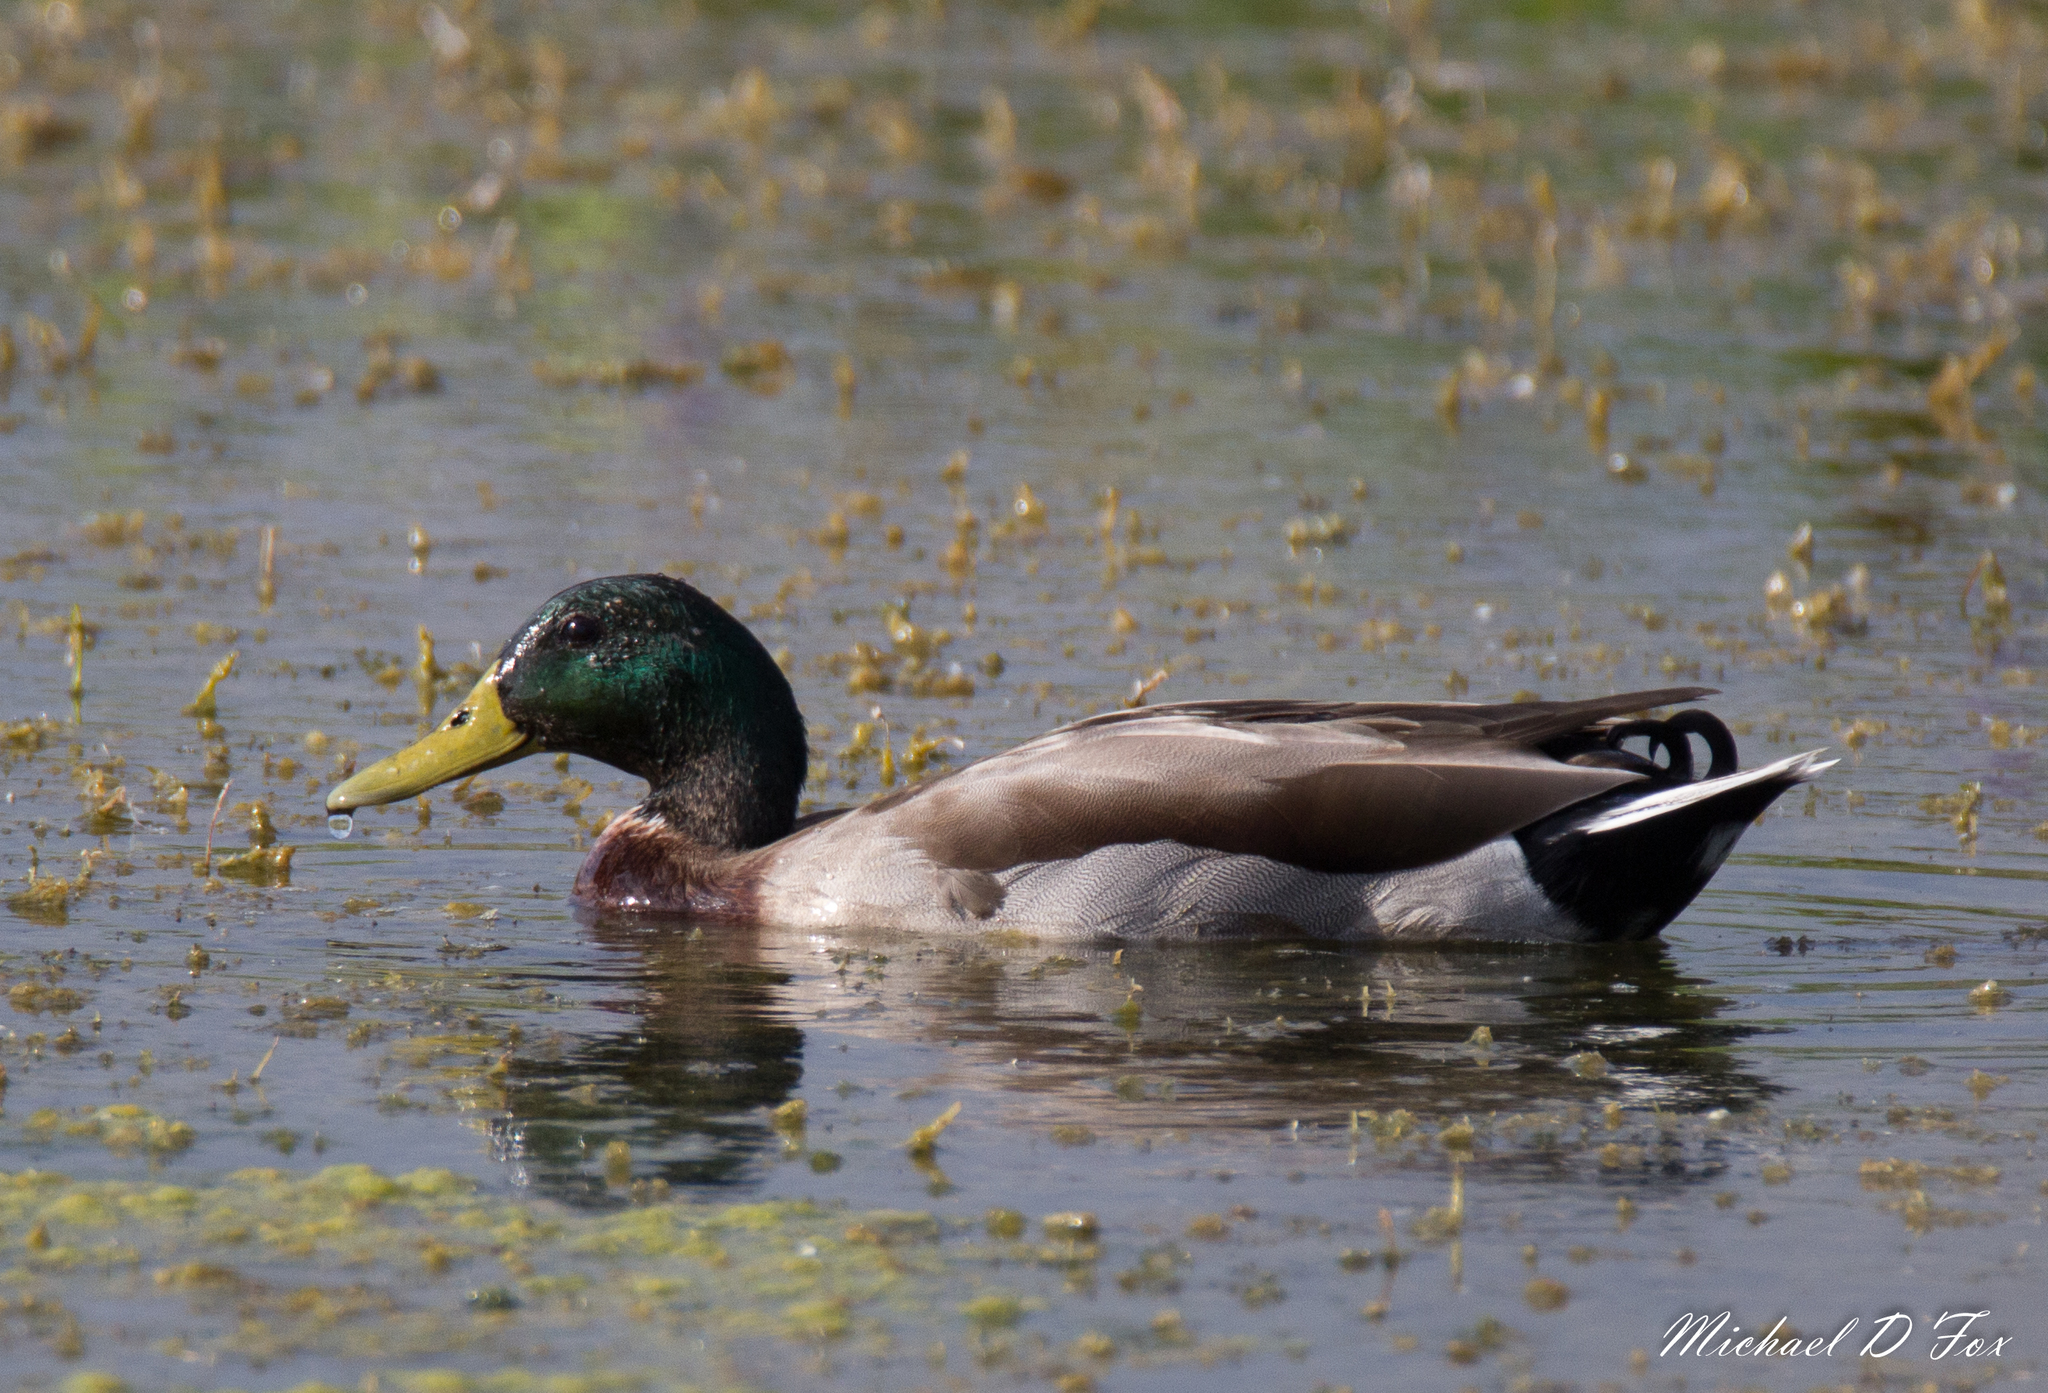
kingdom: Animalia
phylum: Chordata
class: Aves
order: Anseriformes
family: Anatidae
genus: Anas
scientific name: Anas platyrhynchos
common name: Mallard
